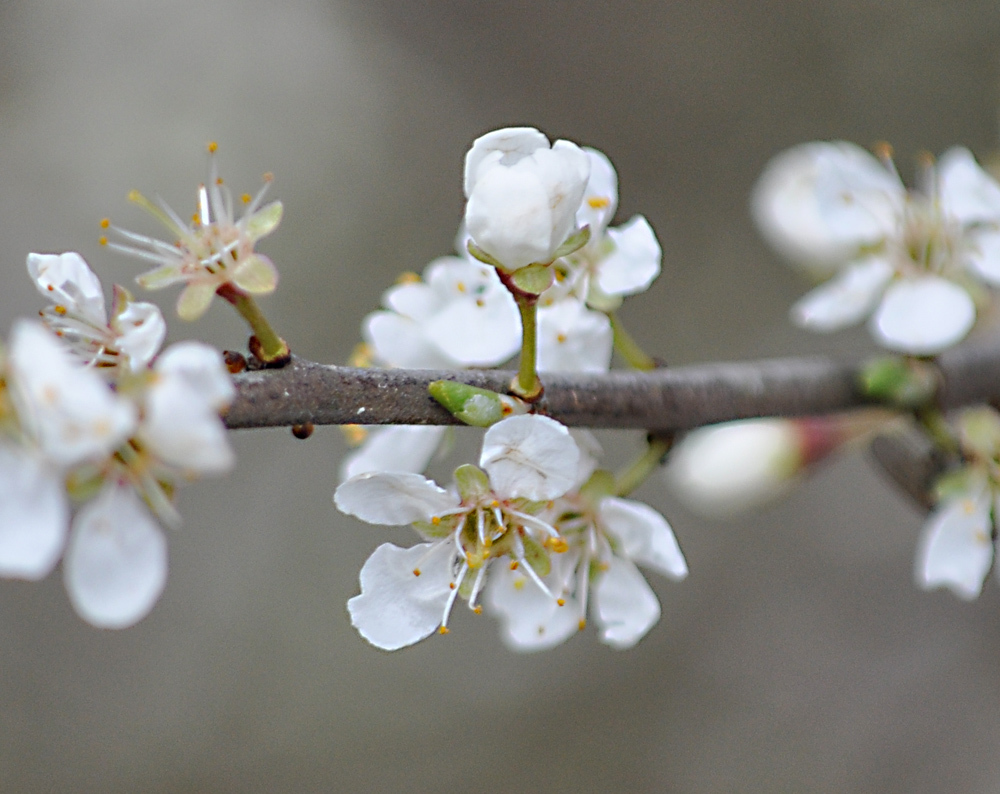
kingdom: Plantae
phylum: Tracheophyta
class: Magnoliopsida
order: Rosales
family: Rosaceae
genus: Prunus
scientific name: Prunus spinosa
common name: Blackthorn
